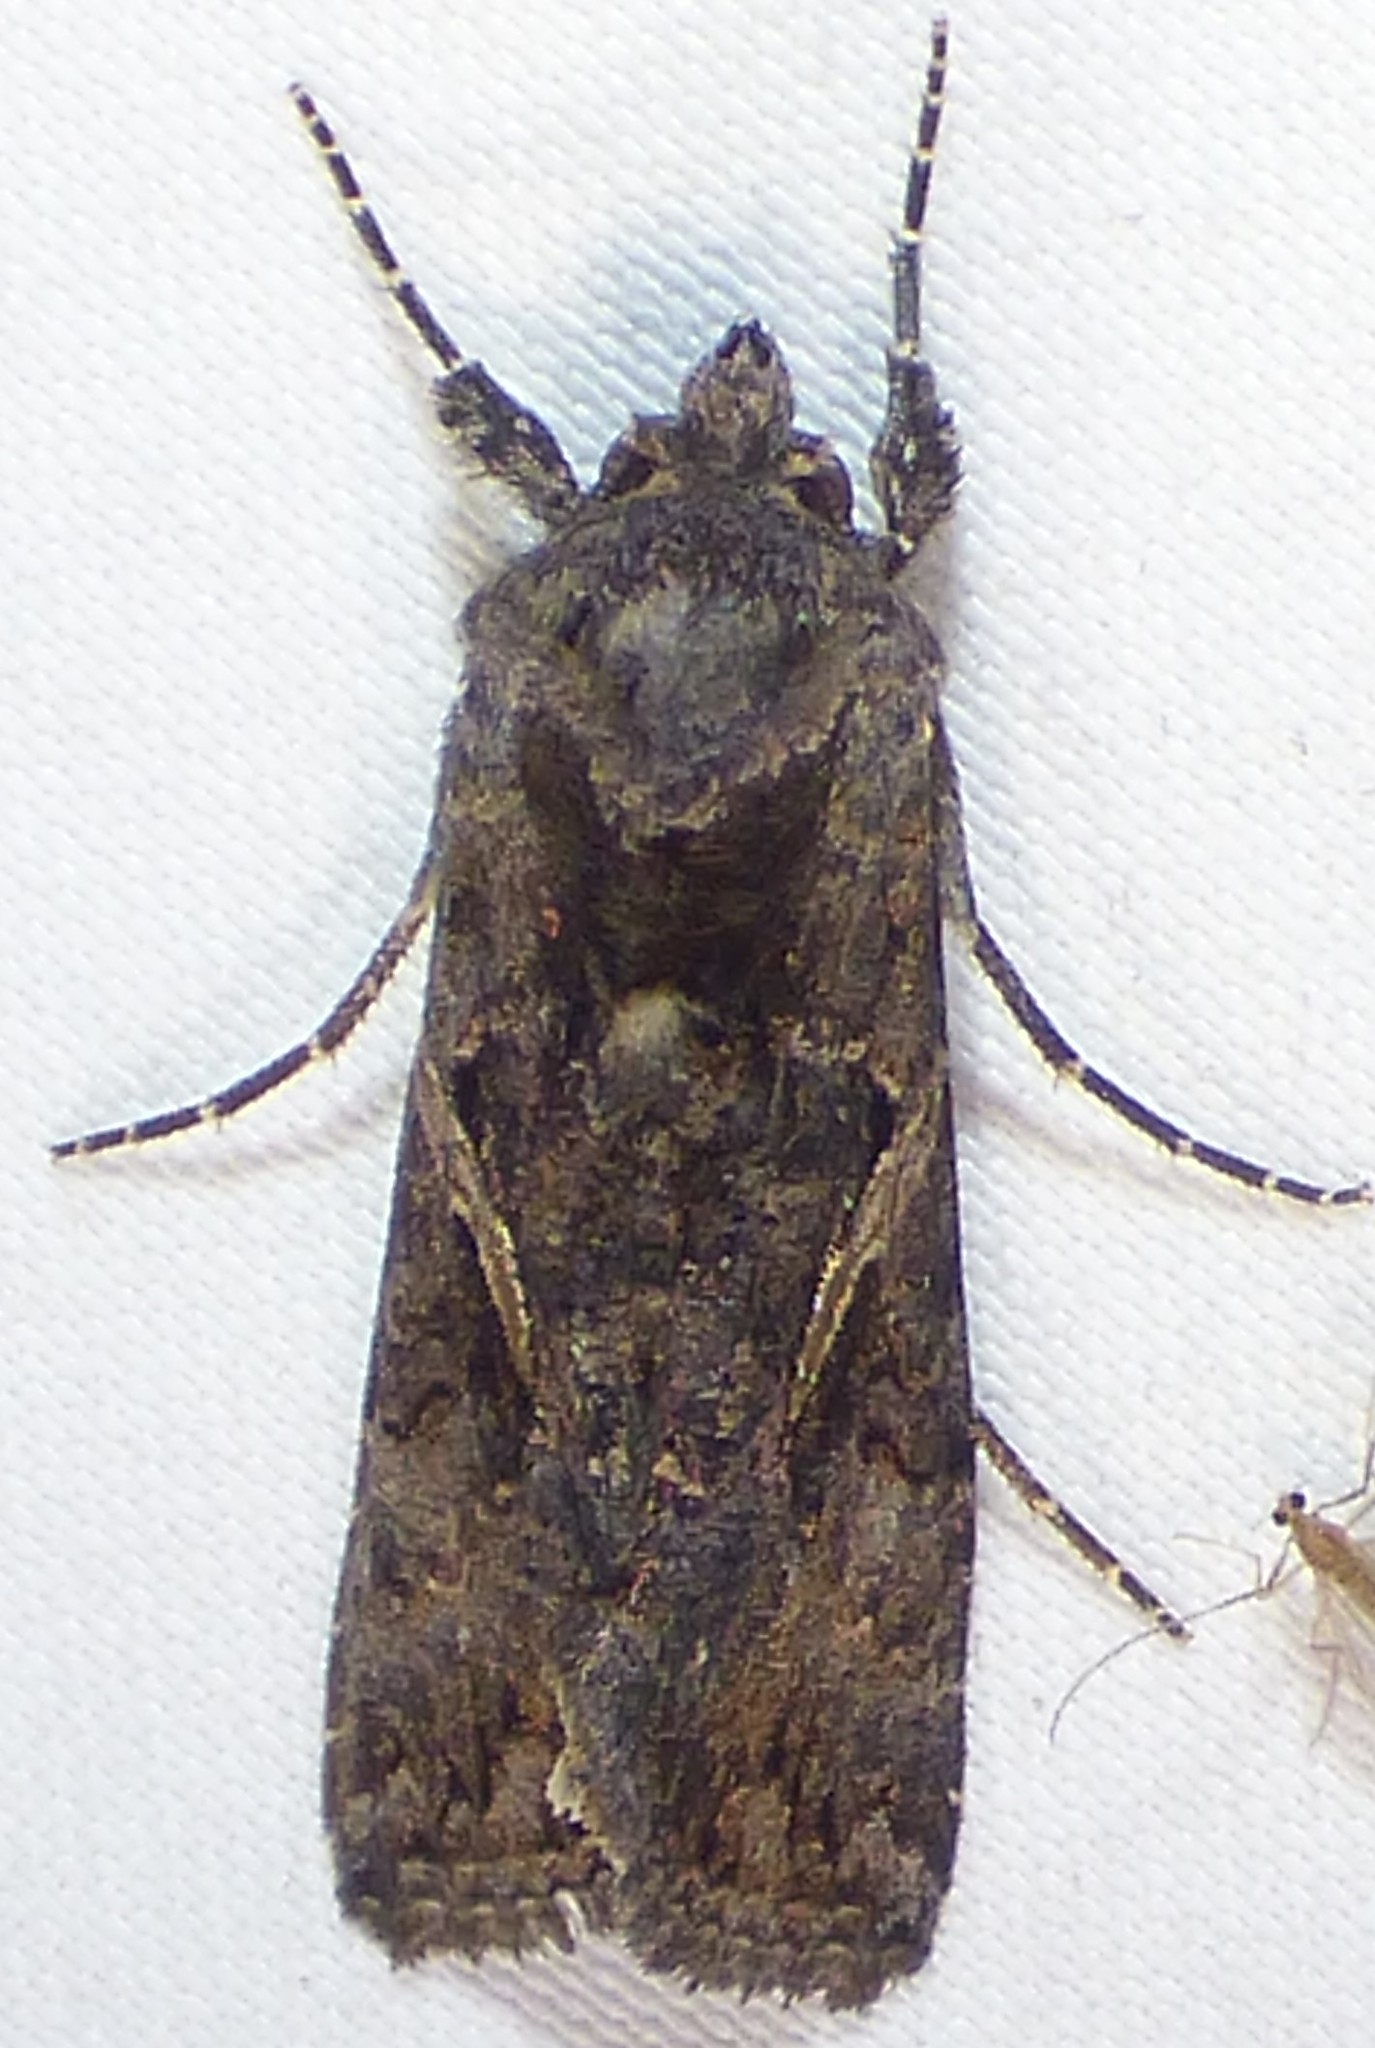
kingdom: Animalia
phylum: Arthropoda
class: Insecta
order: Lepidoptera
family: Noctuidae
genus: Ctenoplusia
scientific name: Ctenoplusia oxygramma
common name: Sharp-stigma looper moth
